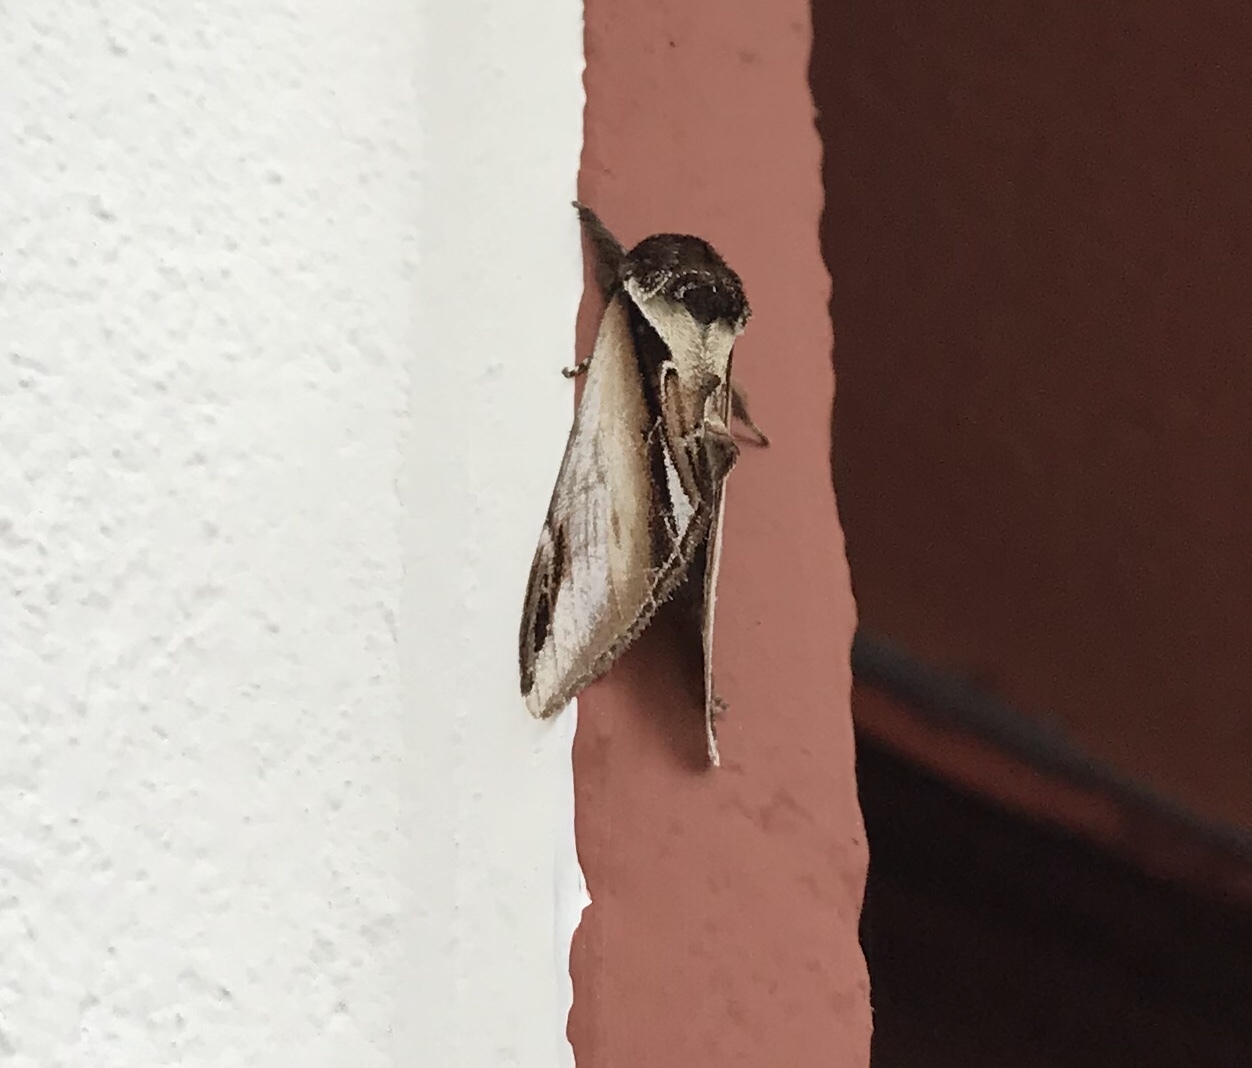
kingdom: Animalia
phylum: Arthropoda
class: Insecta
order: Lepidoptera
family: Notodontidae
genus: Pheosia
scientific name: Pheosia gnoma
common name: Lesser swallow prominent
